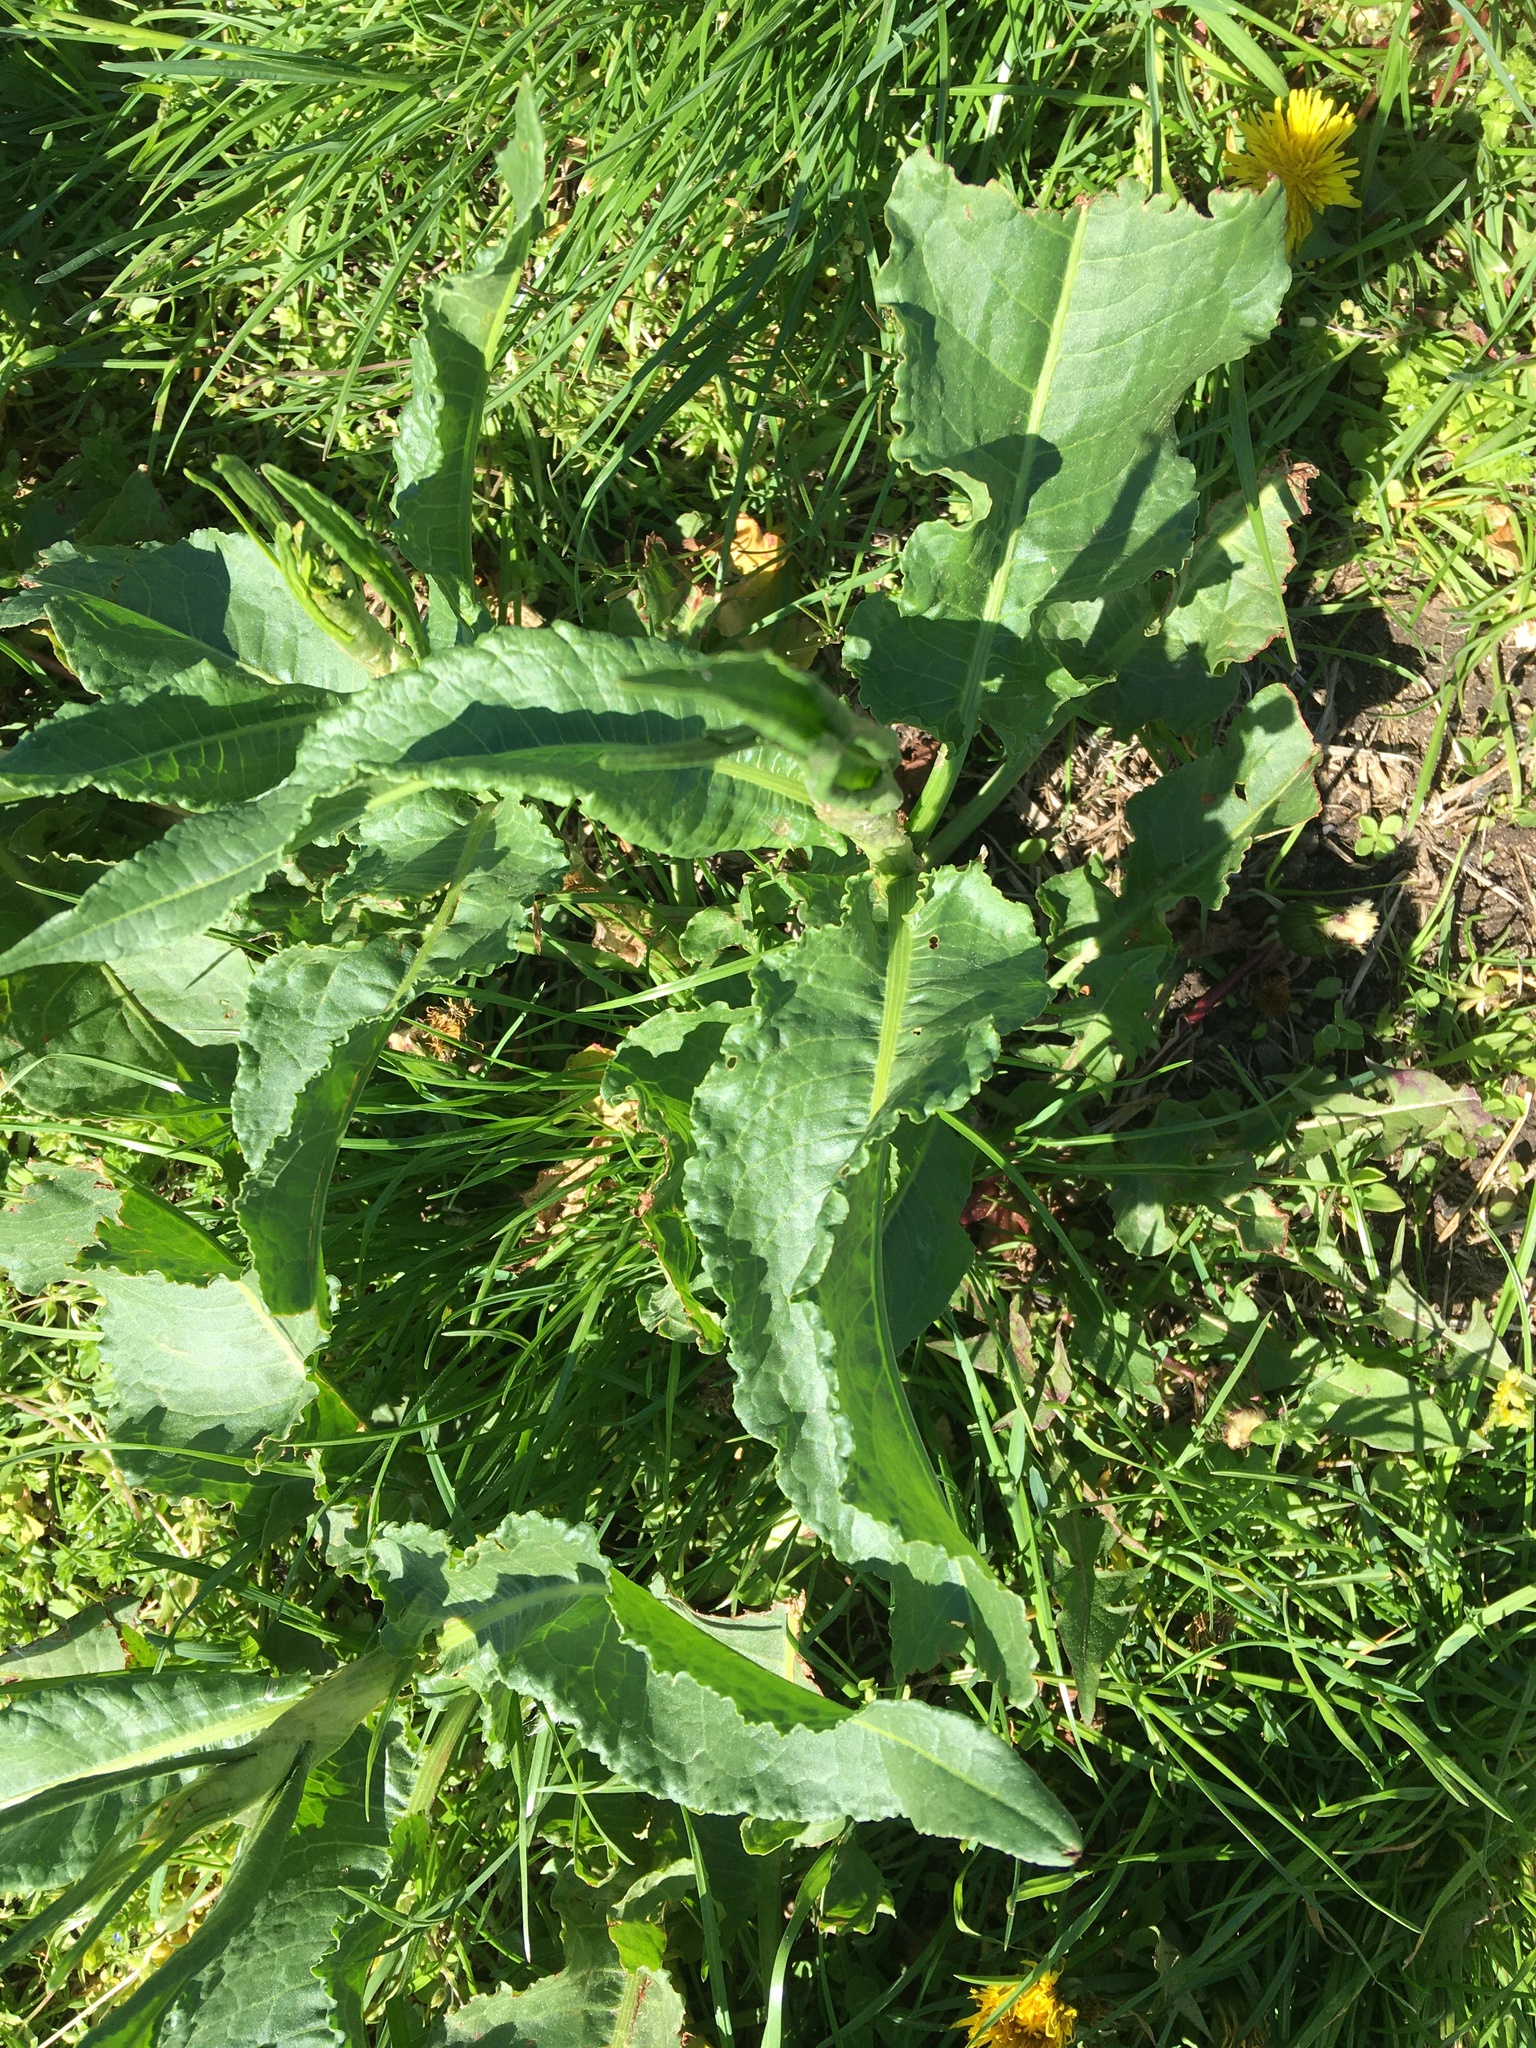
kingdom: Plantae
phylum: Tracheophyta
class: Magnoliopsida
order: Caryophyllales
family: Polygonaceae
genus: Rumex
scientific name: Rumex obtusifolius
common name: Bitter dock
